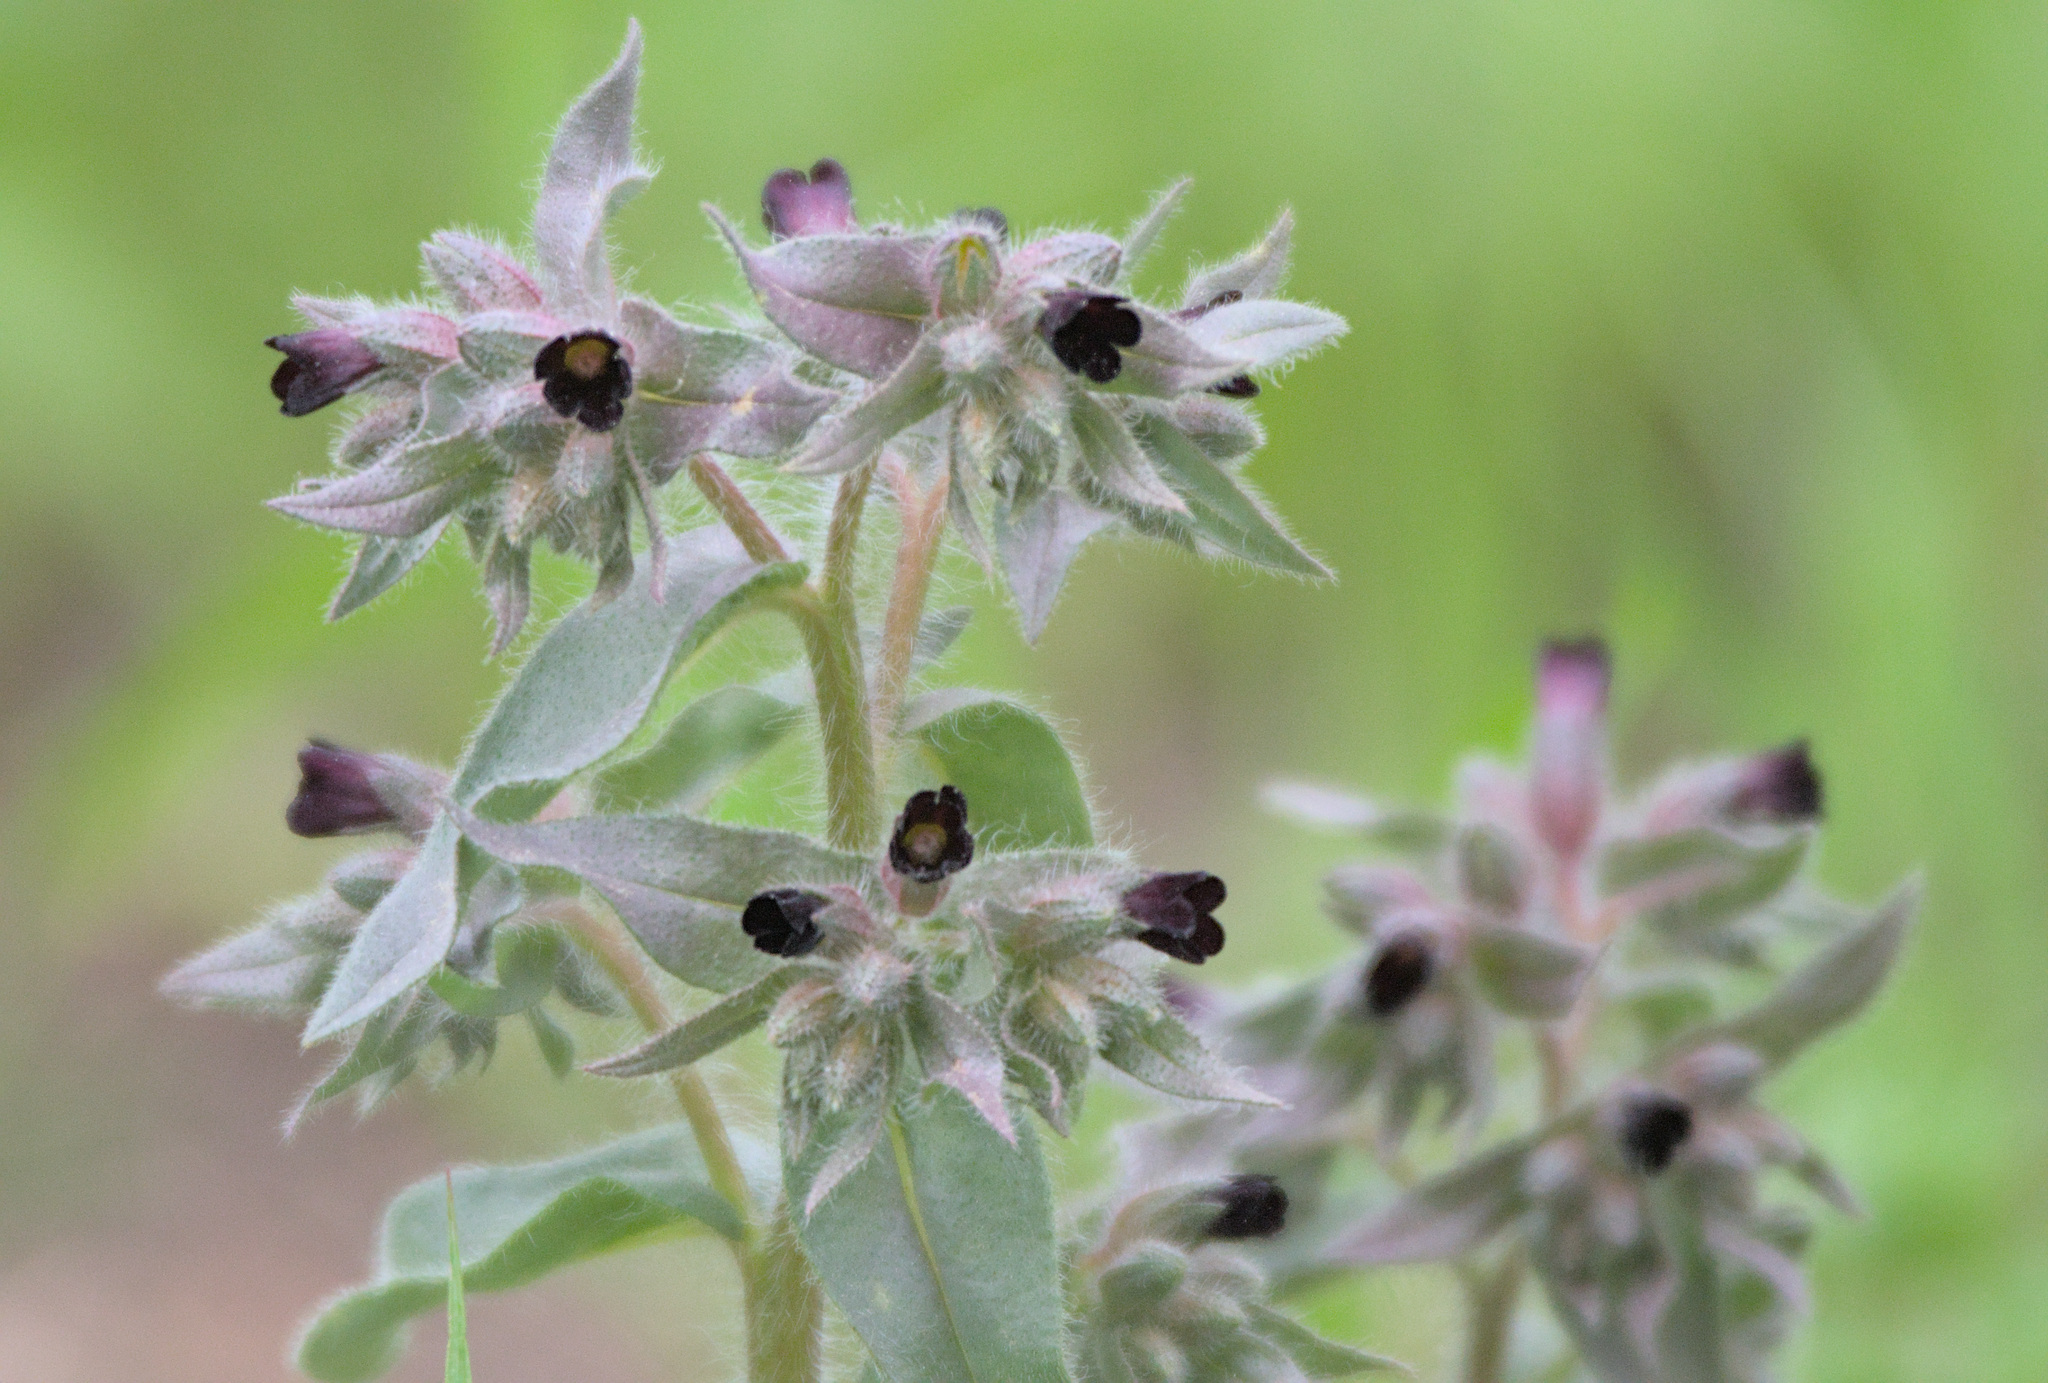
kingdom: Plantae
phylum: Tracheophyta
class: Magnoliopsida
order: Boraginales
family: Boraginaceae
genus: Nonea
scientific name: Nonea pulla
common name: Brown nonea
